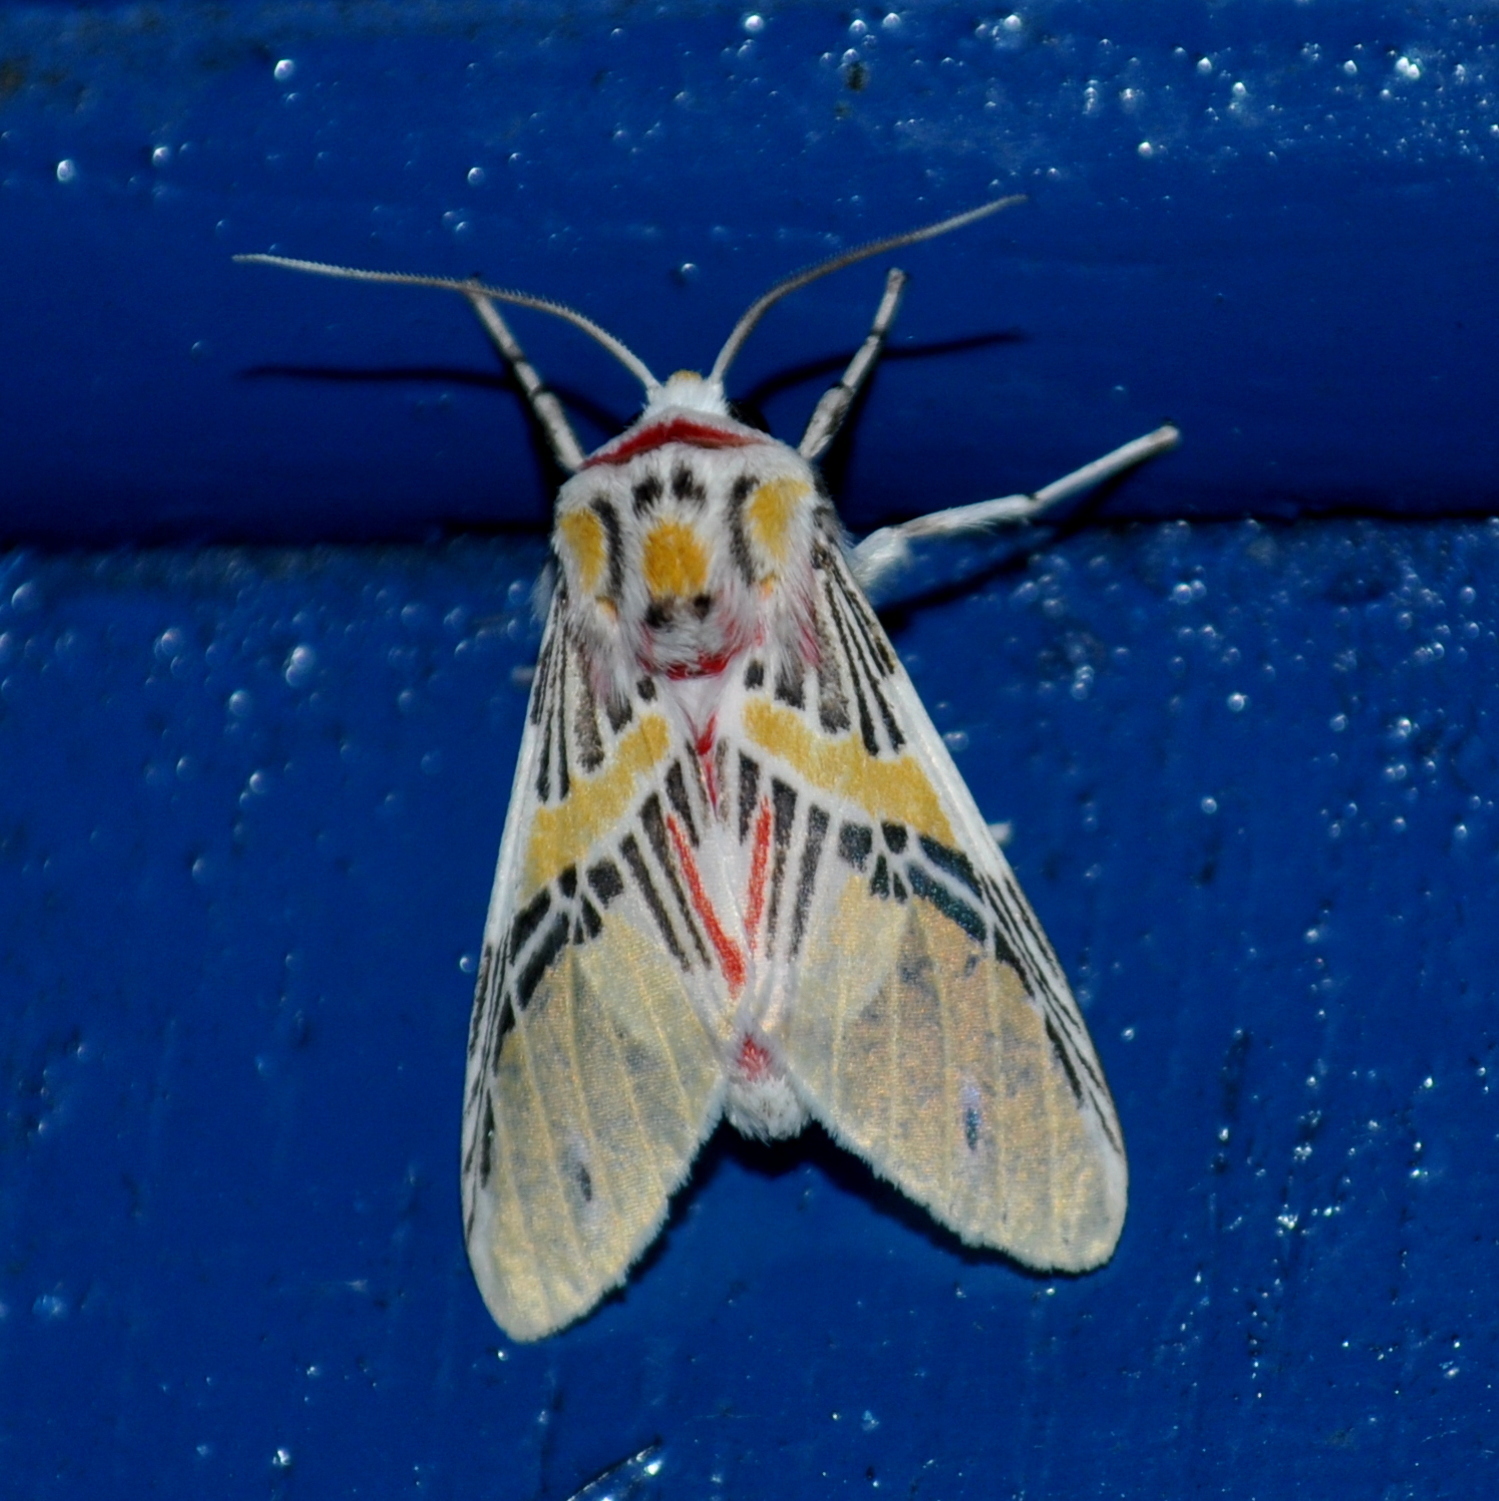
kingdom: Animalia
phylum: Arthropoda
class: Insecta
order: Lepidoptera
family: Erebidae
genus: Idalus
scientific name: Idalus agastus
